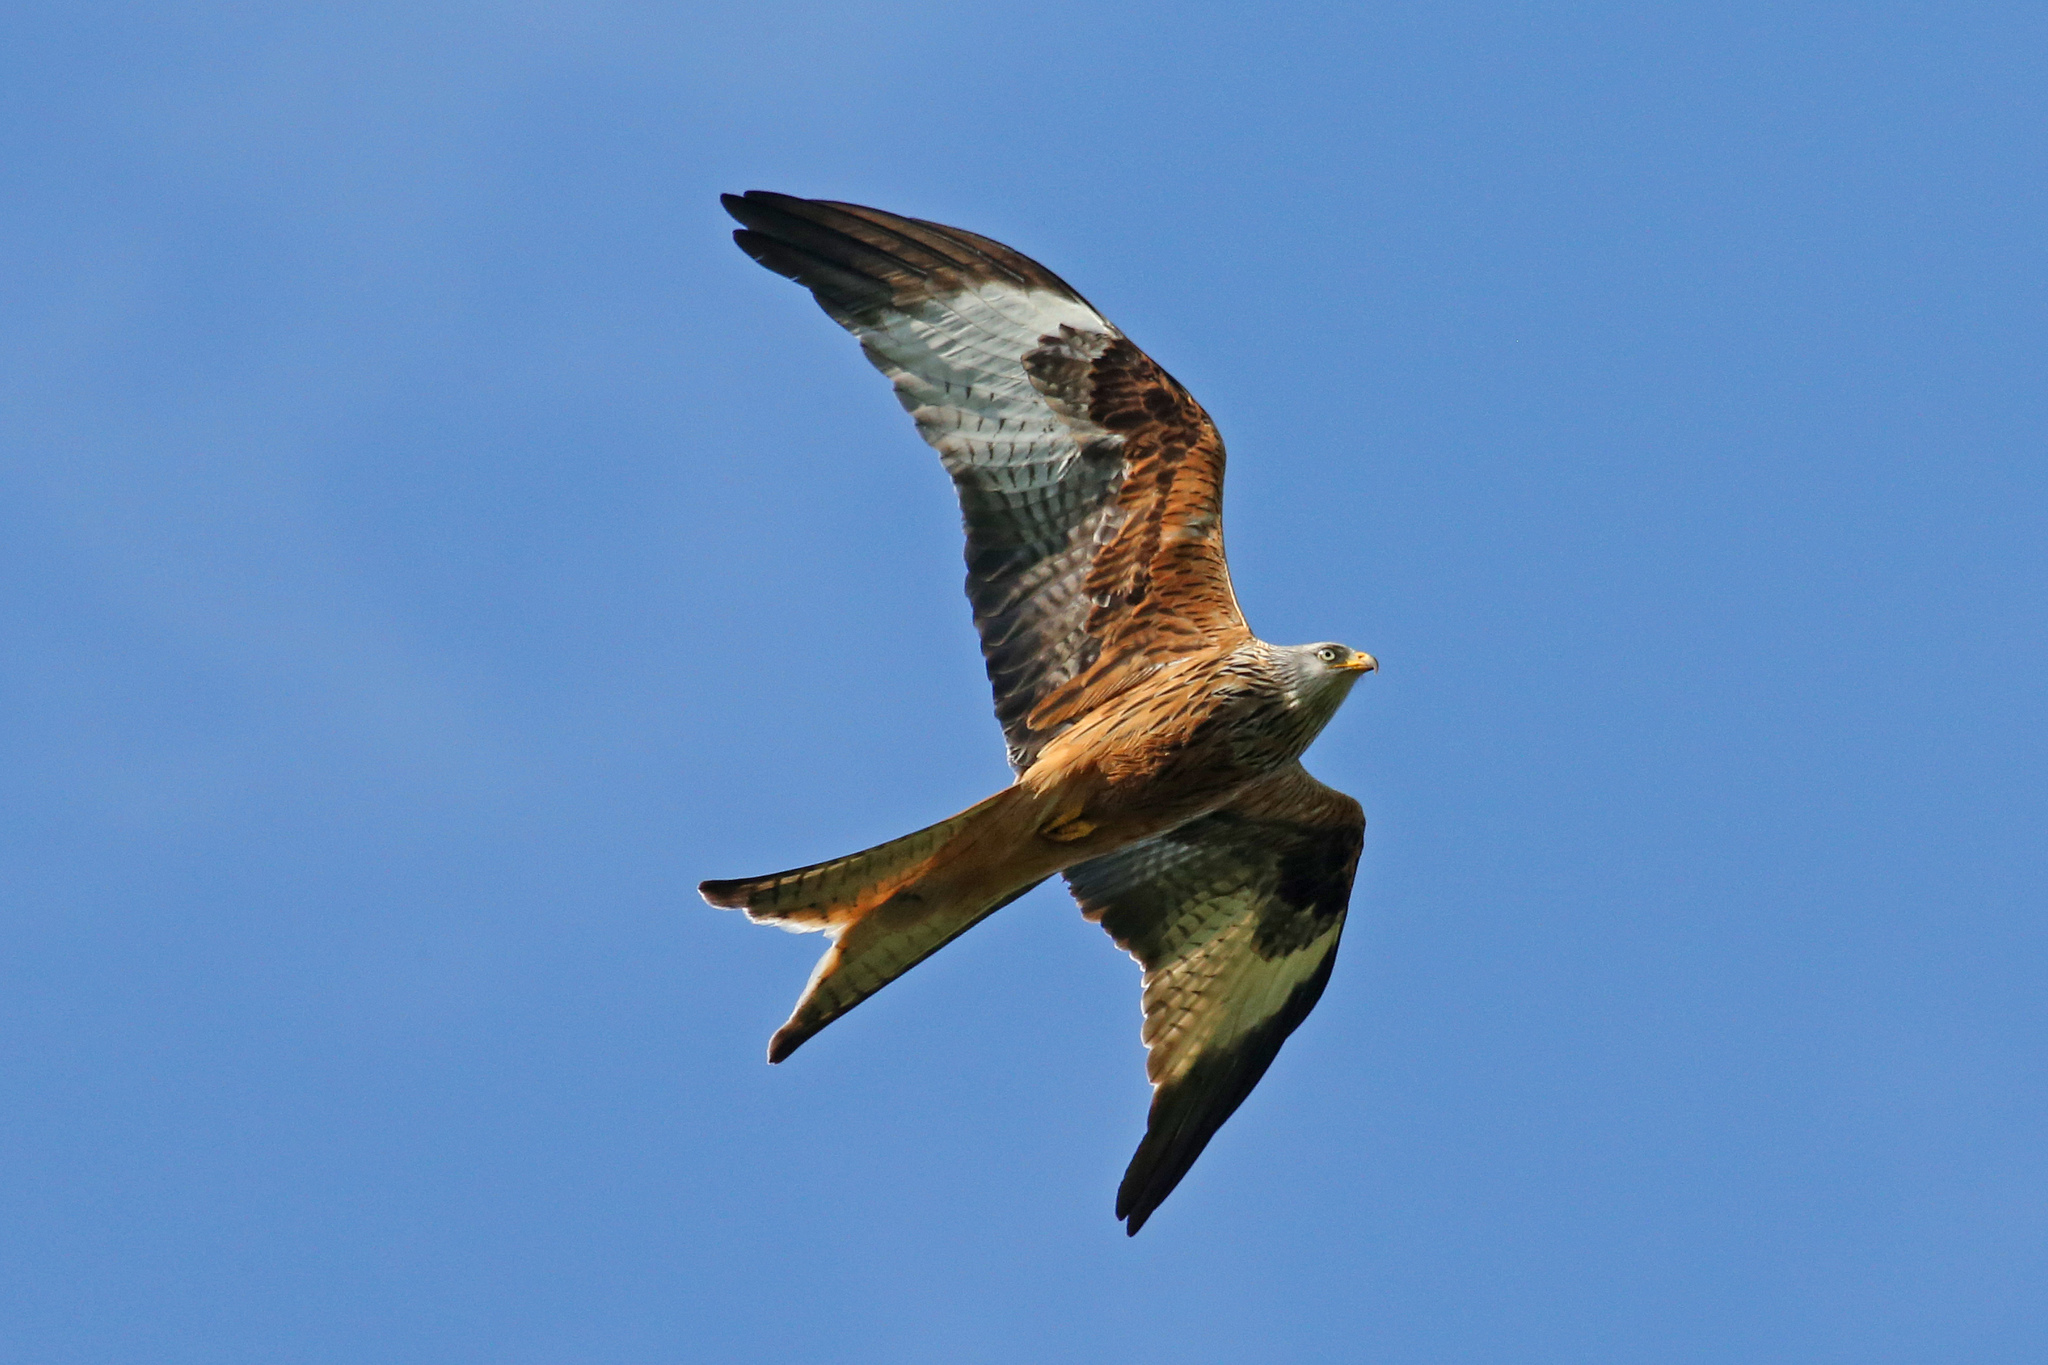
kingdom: Animalia
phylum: Chordata
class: Aves
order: Accipitriformes
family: Accipitridae
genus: Milvus
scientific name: Milvus milvus
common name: Red kite
